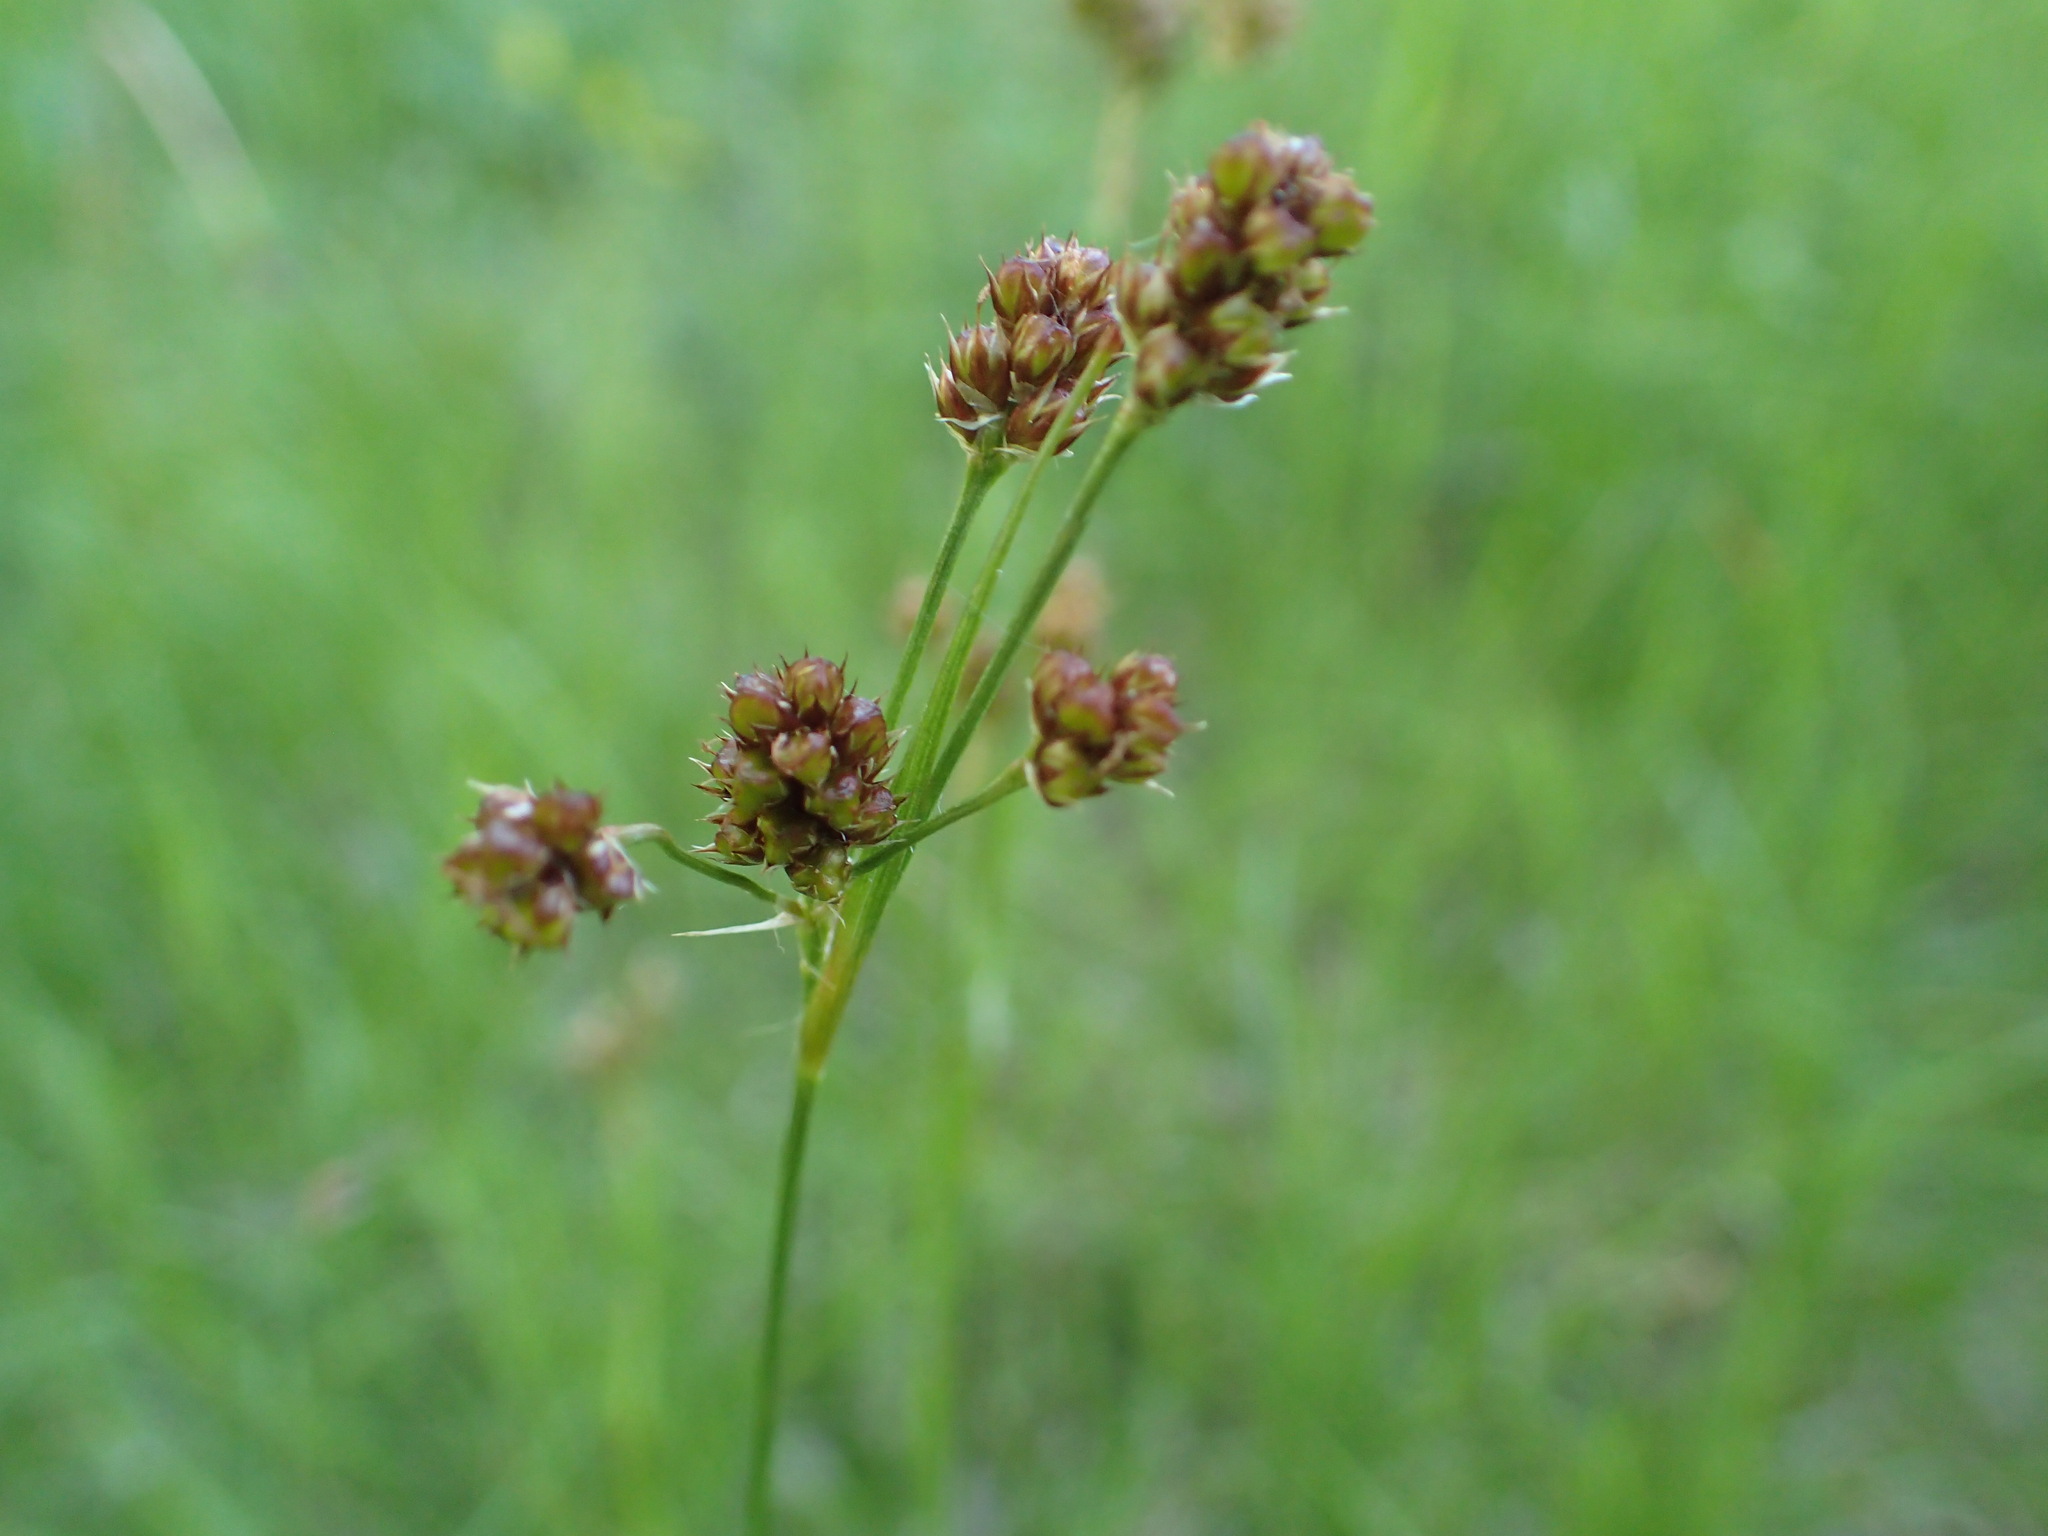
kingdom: Plantae
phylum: Tracheophyta
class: Liliopsida
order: Poales
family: Juncaceae
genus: Luzula
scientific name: Luzula multiflora
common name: Heath wood-rush
